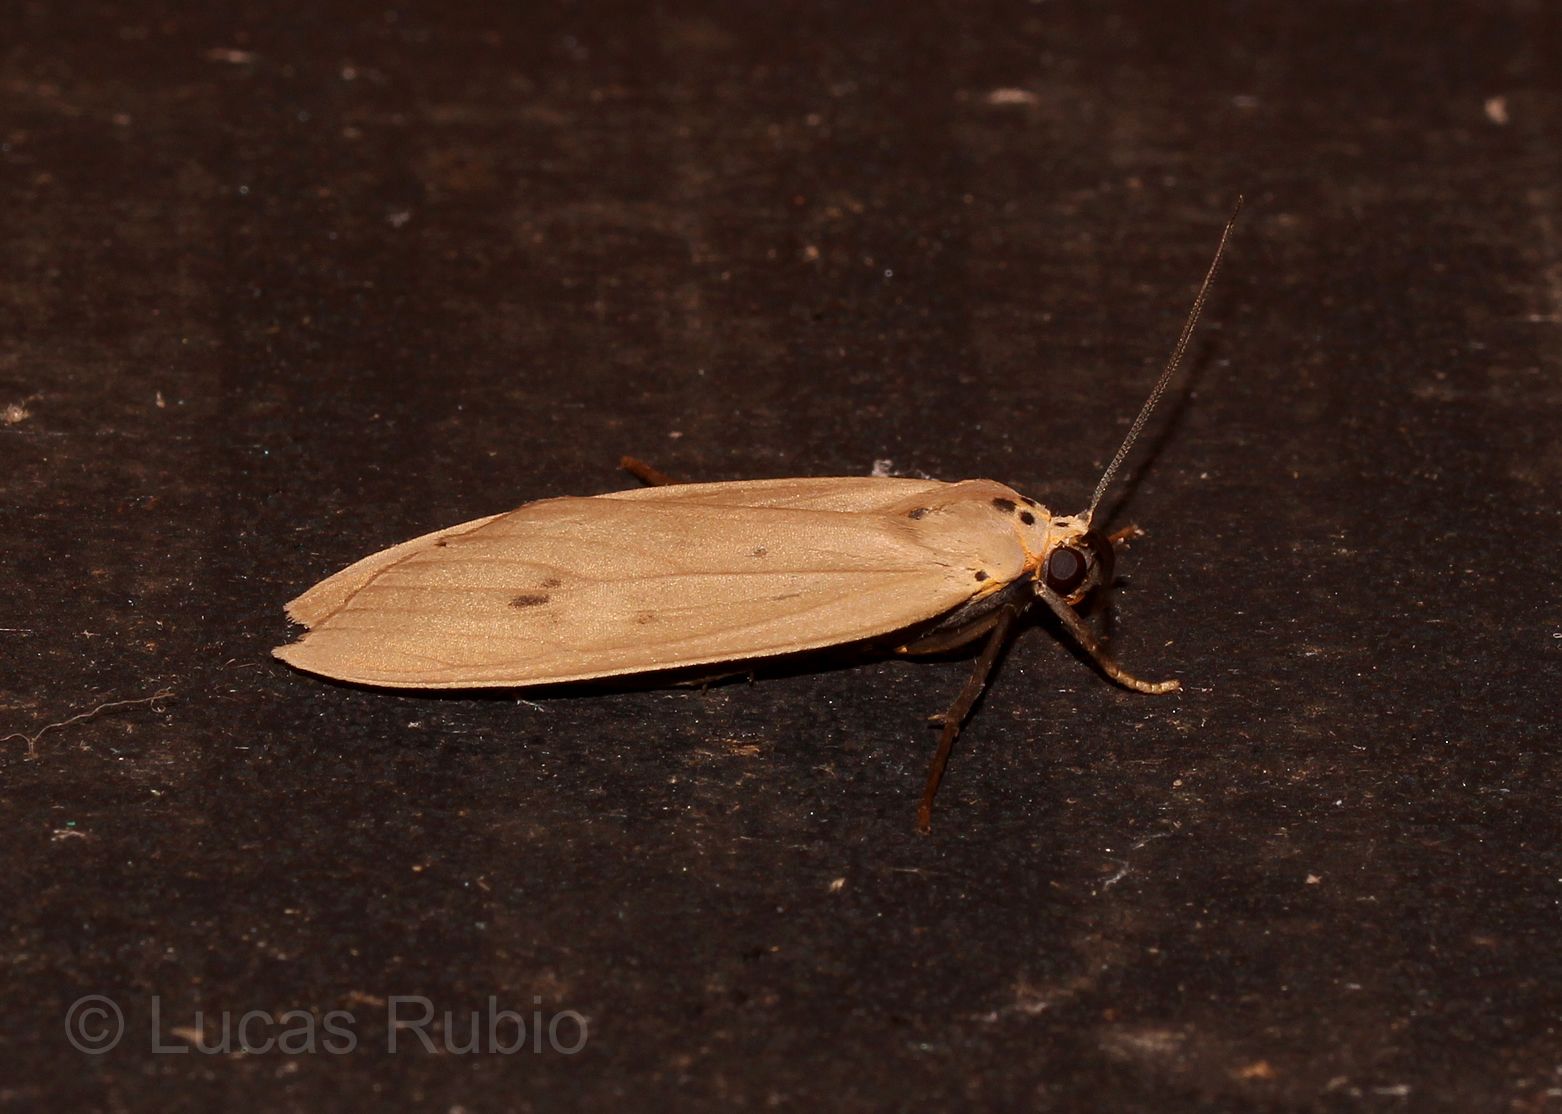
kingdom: Animalia
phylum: Arthropoda
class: Insecta
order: Lepidoptera
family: Erebidae
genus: Opharus
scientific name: Opharus rema
